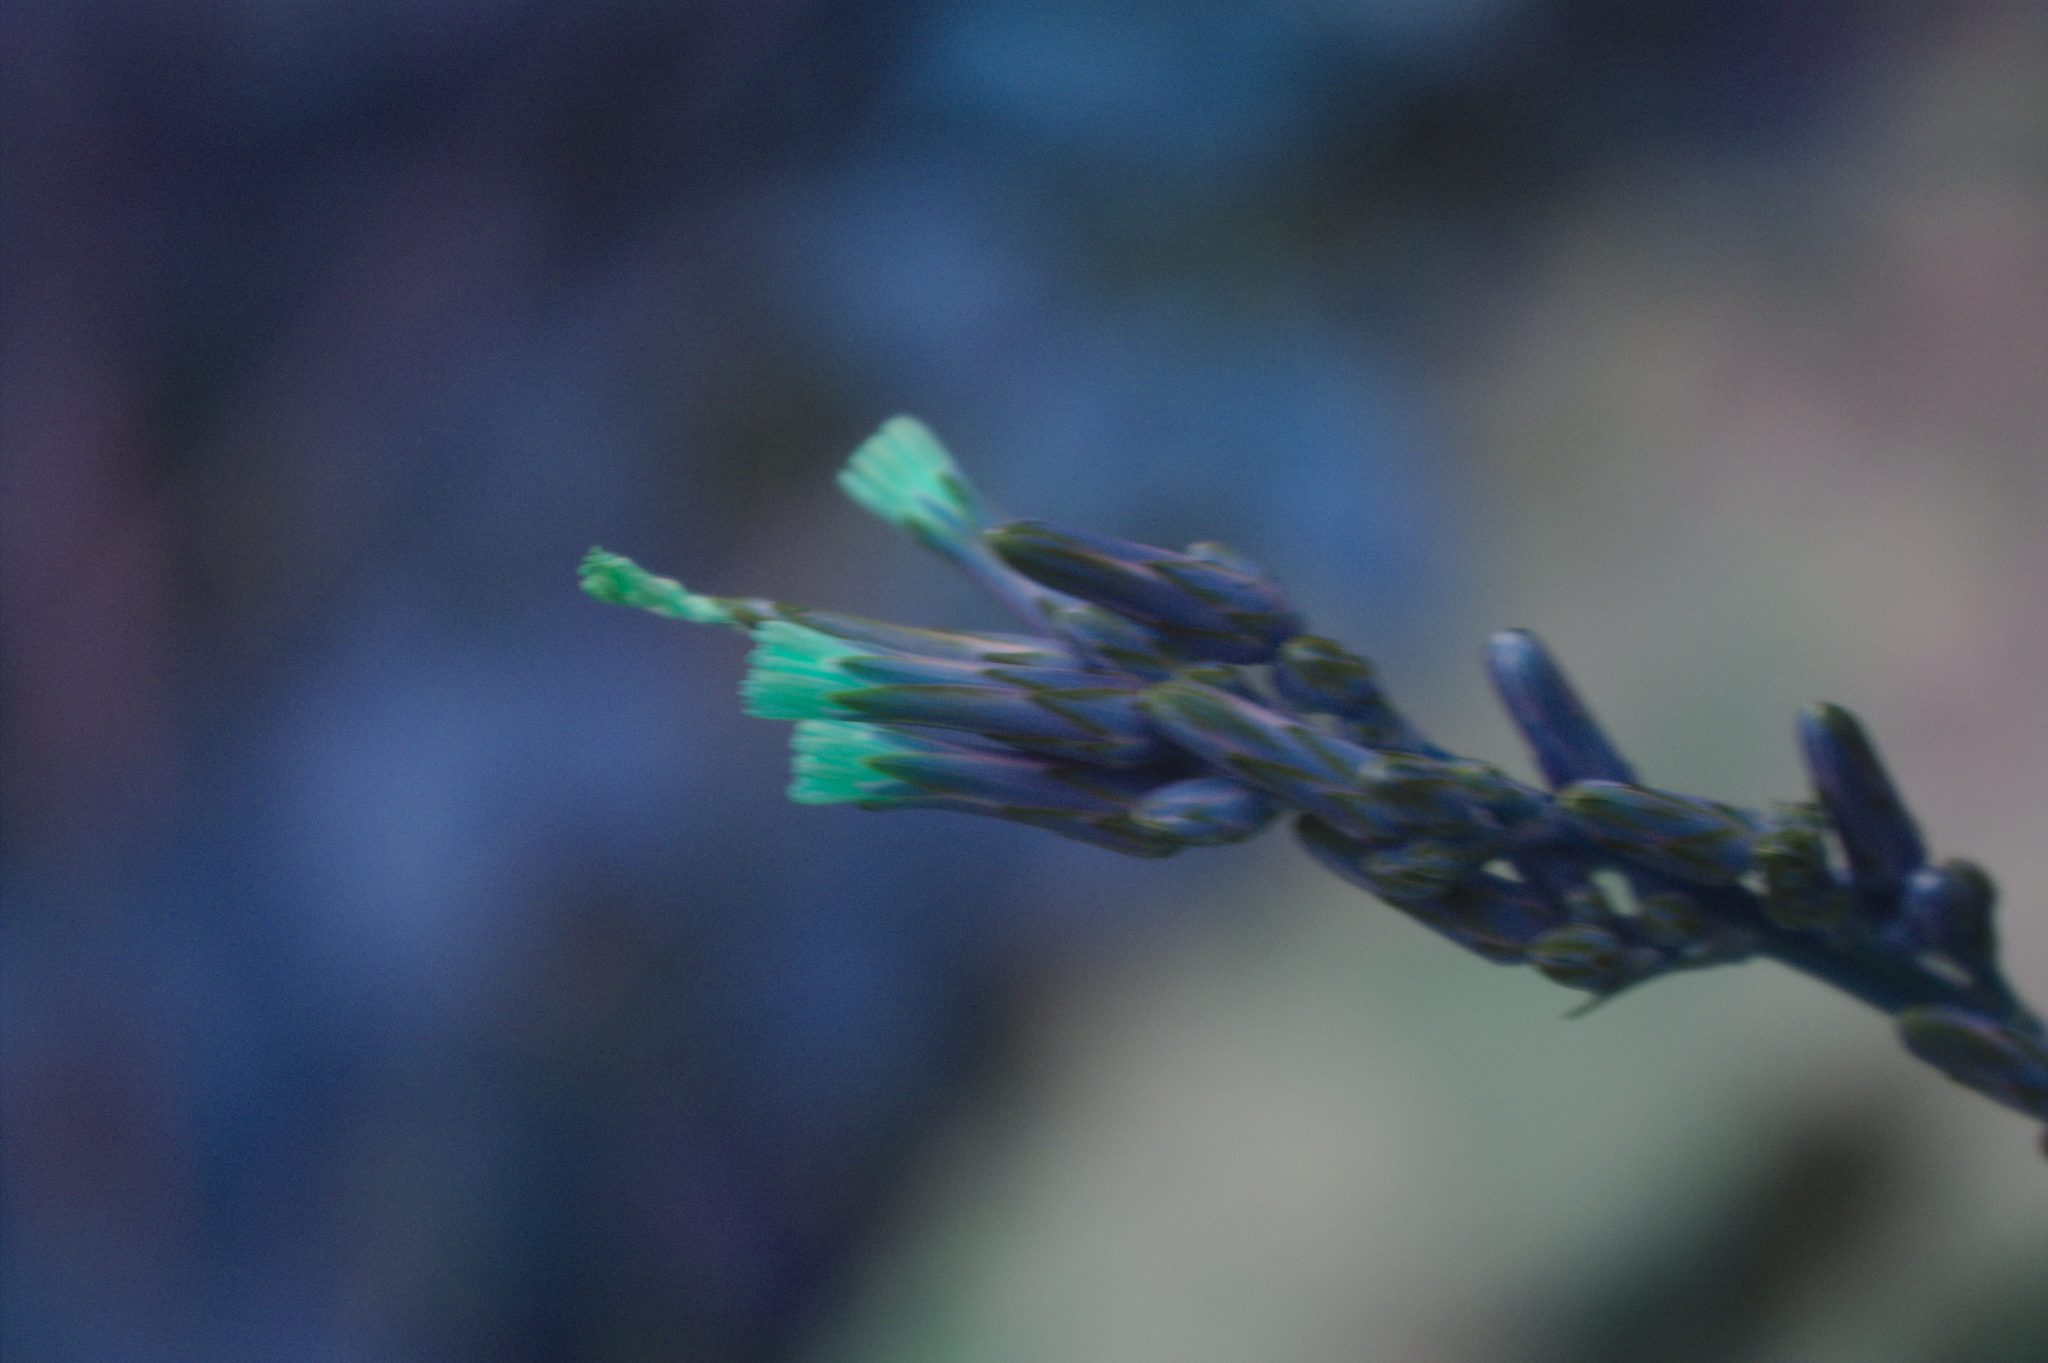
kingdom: Plantae
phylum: Tracheophyta
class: Magnoliopsida
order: Asterales
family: Asteraceae
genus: Lactuca
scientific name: Lactuca canadensis
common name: Canada lettuce
